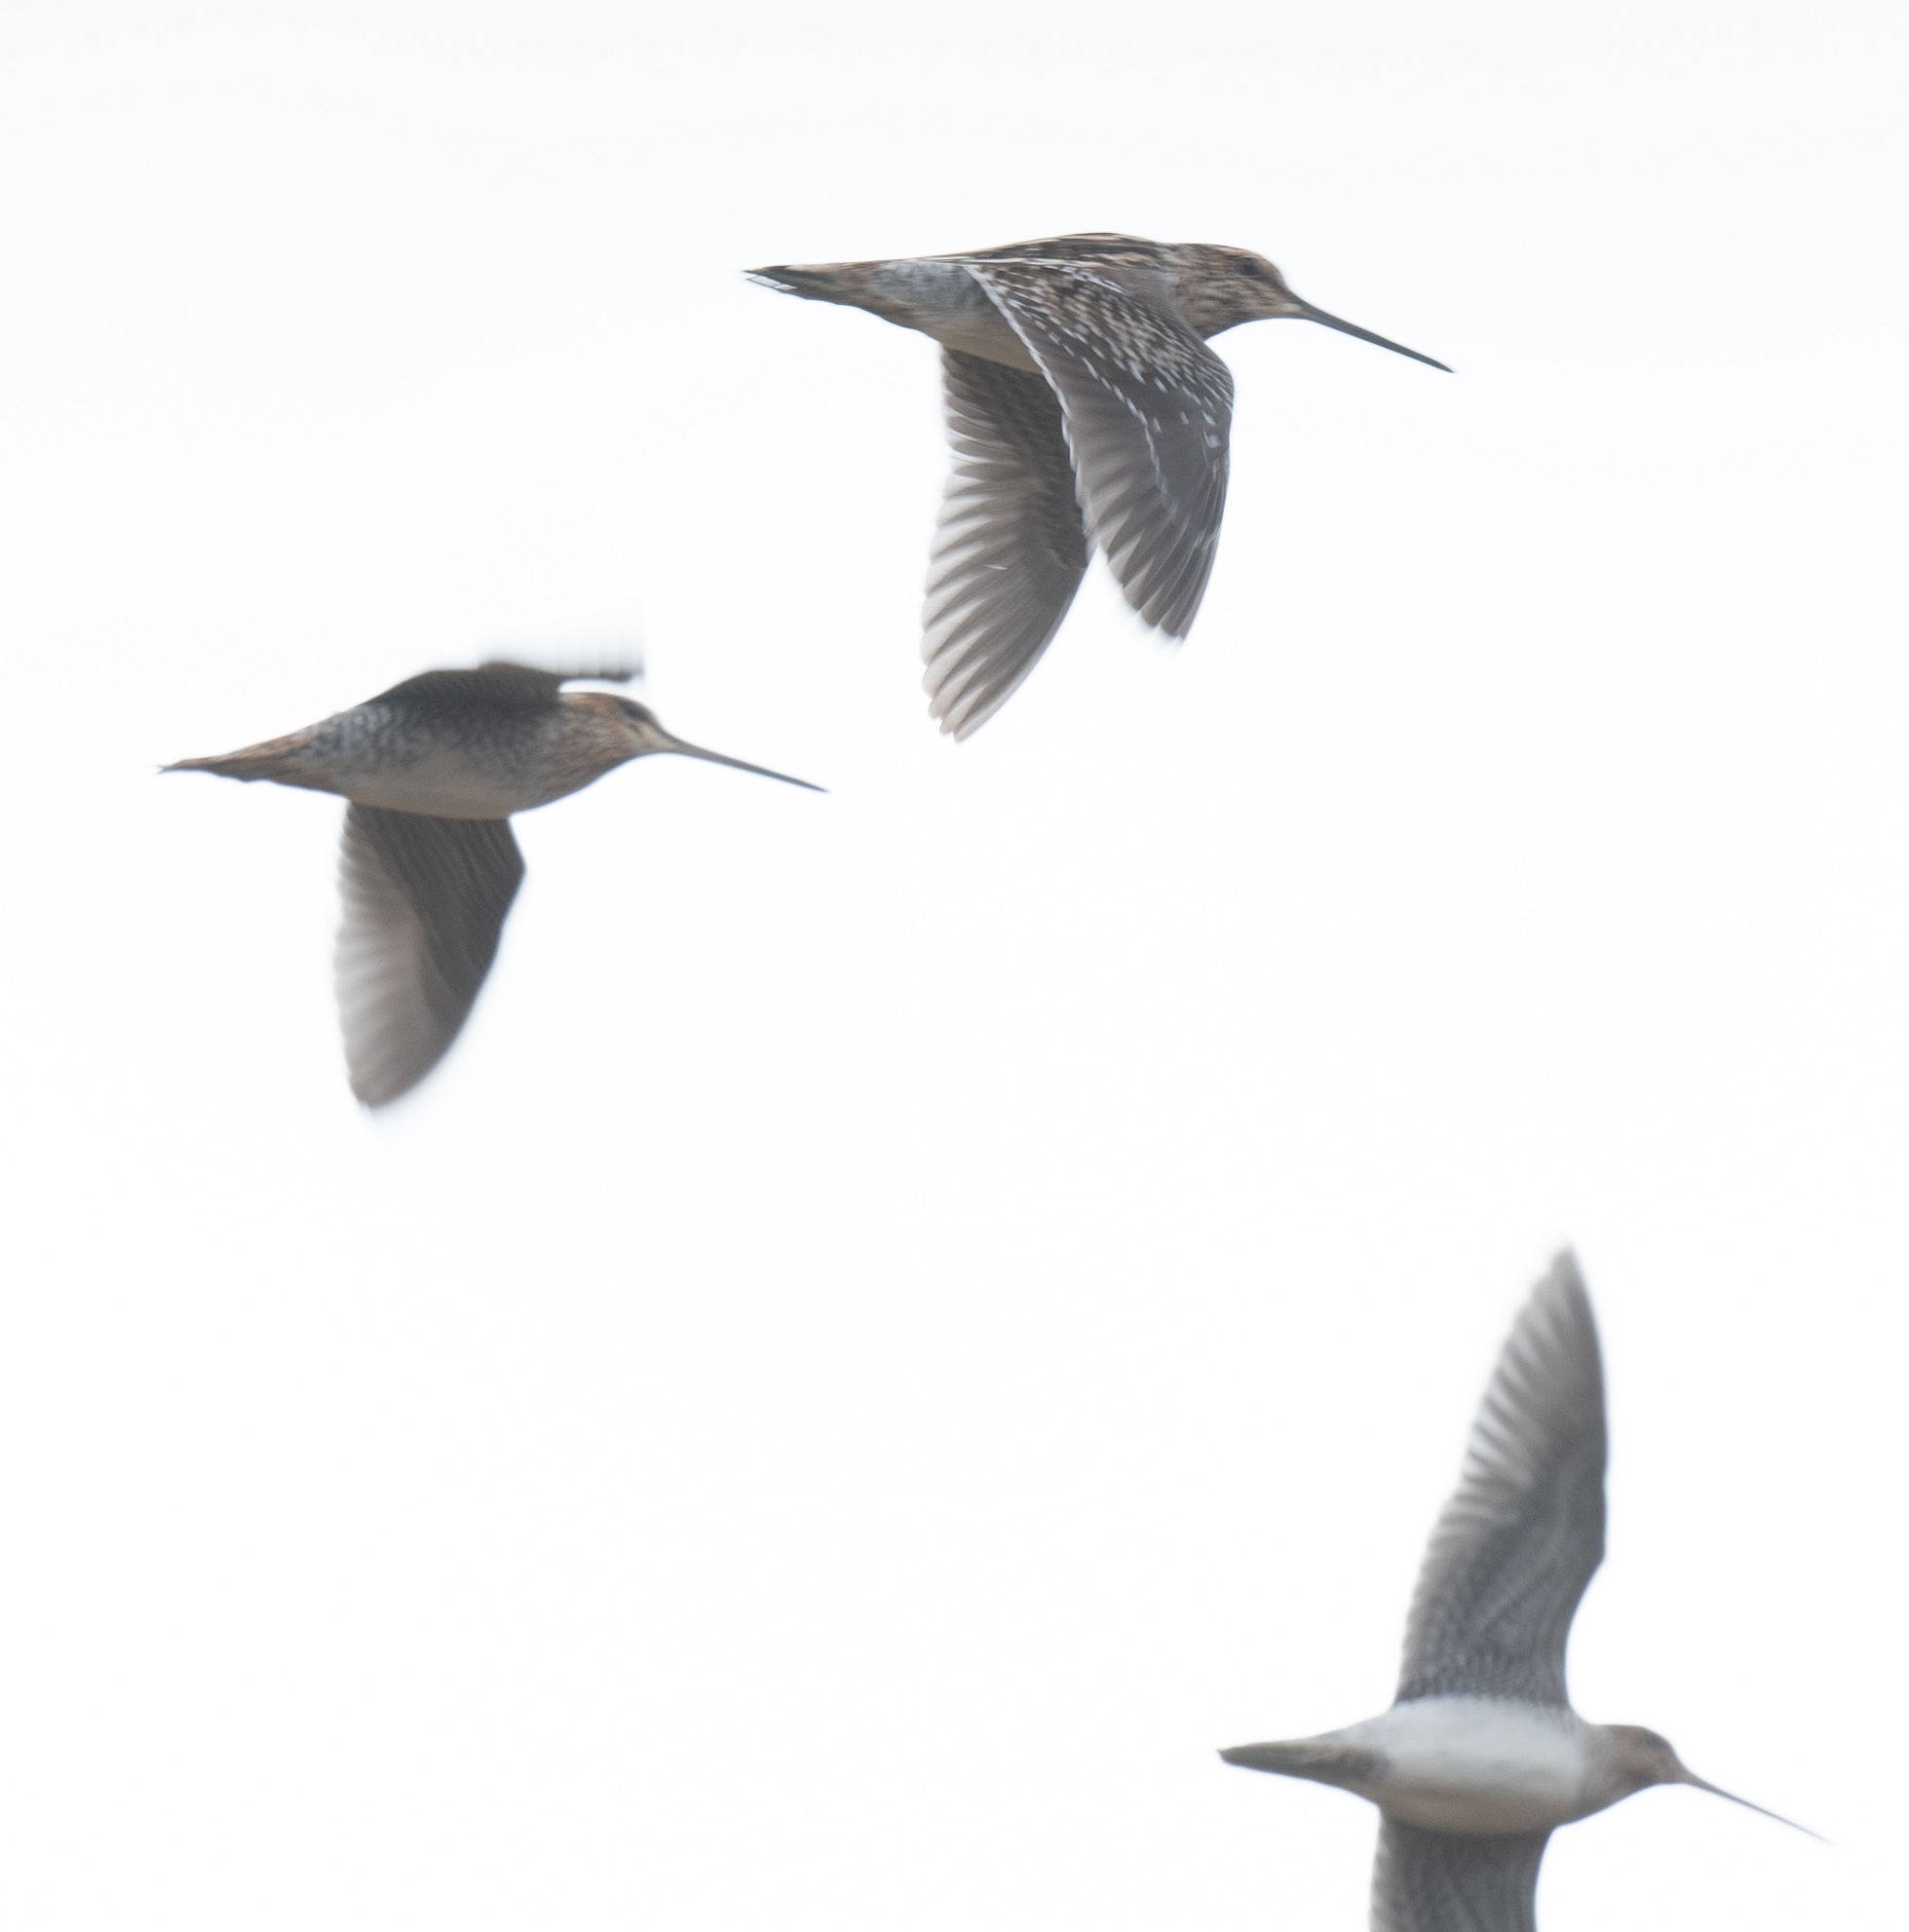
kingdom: Animalia
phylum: Chordata
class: Aves
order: Charadriiformes
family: Scolopacidae
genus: Gallinago
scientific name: Gallinago delicata
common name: Wilson's snipe
